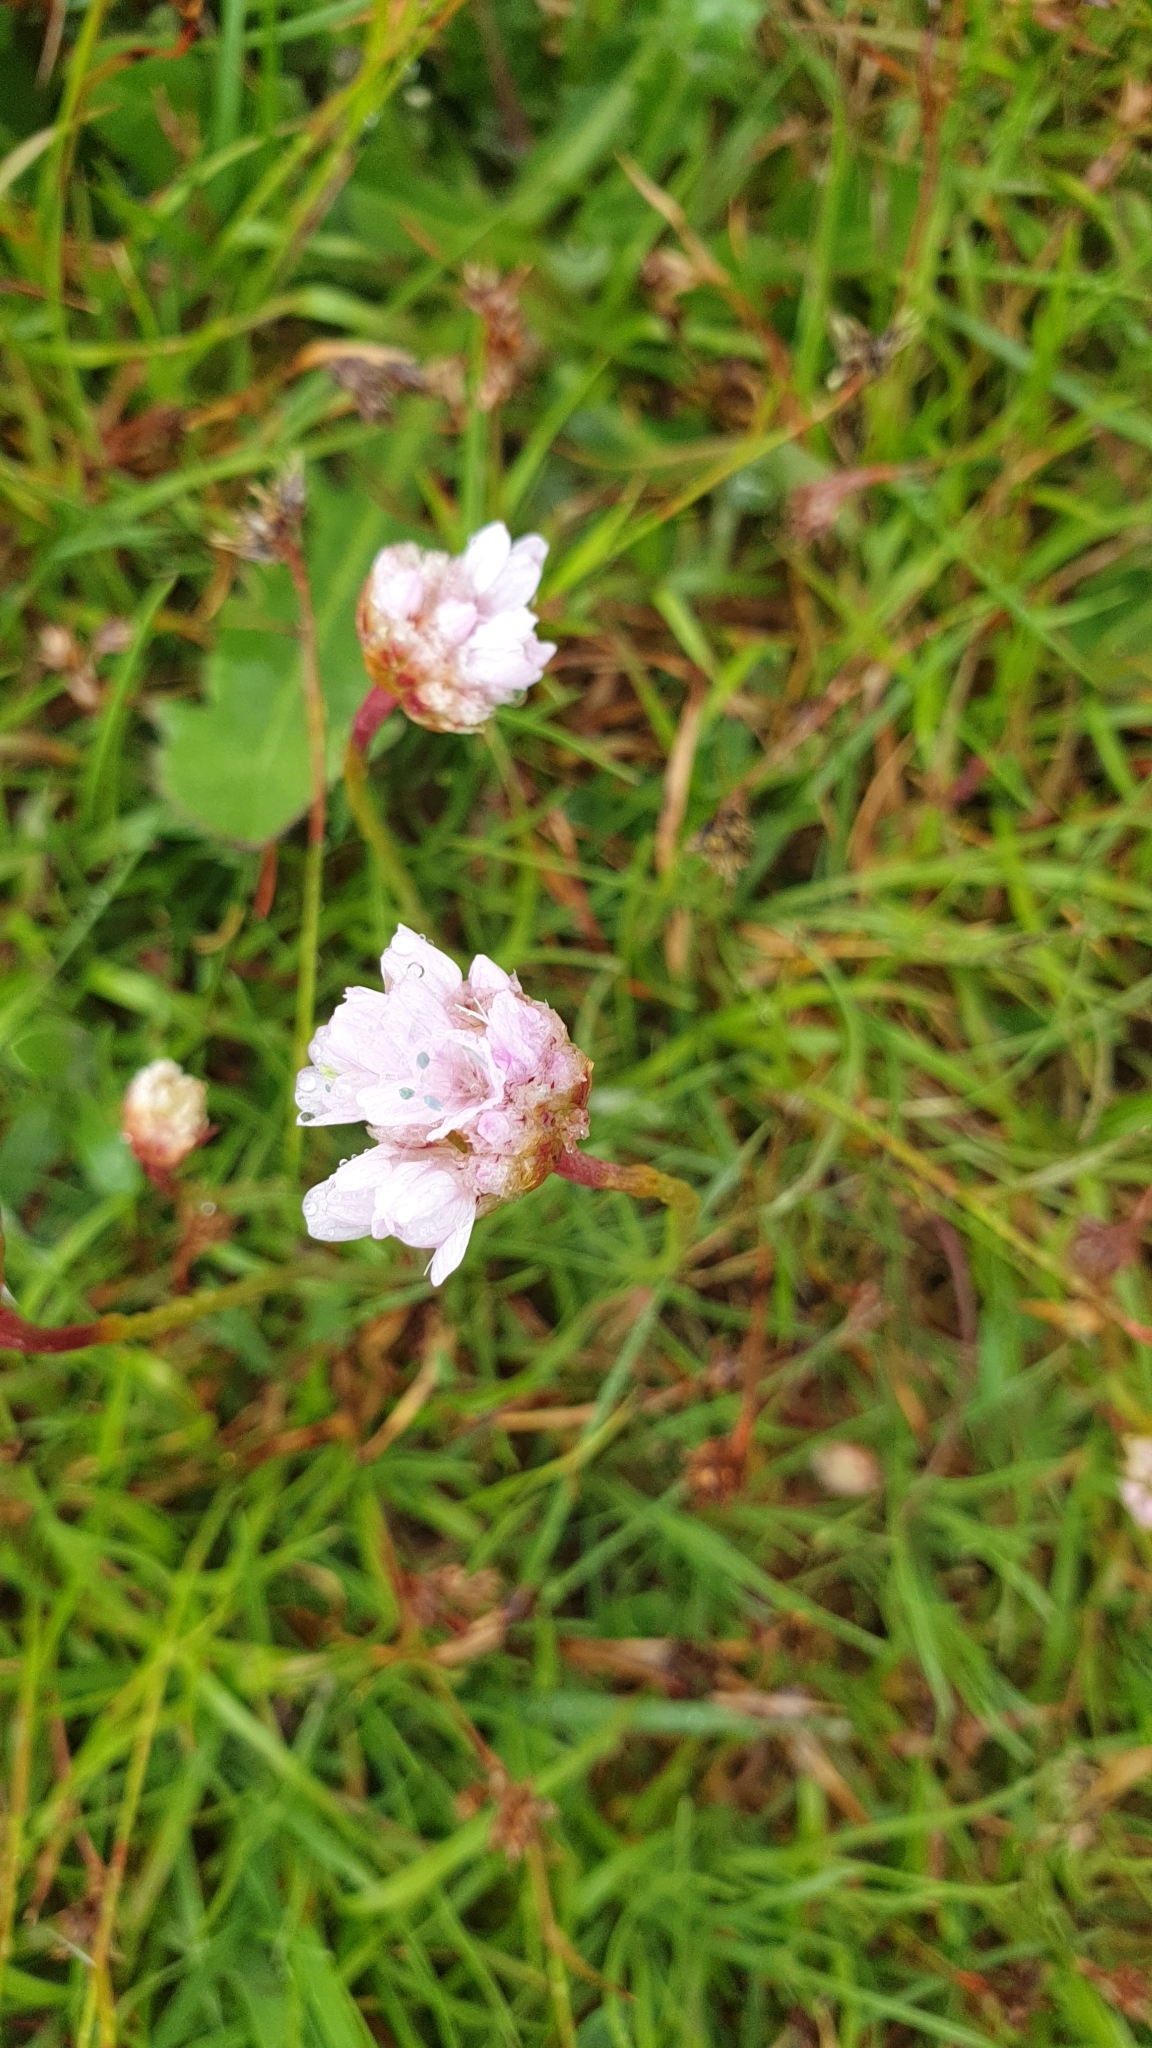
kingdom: Plantae
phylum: Tracheophyta
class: Magnoliopsida
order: Caryophyllales
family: Plumbaginaceae
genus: Armeria
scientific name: Armeria maritima
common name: Thrift
